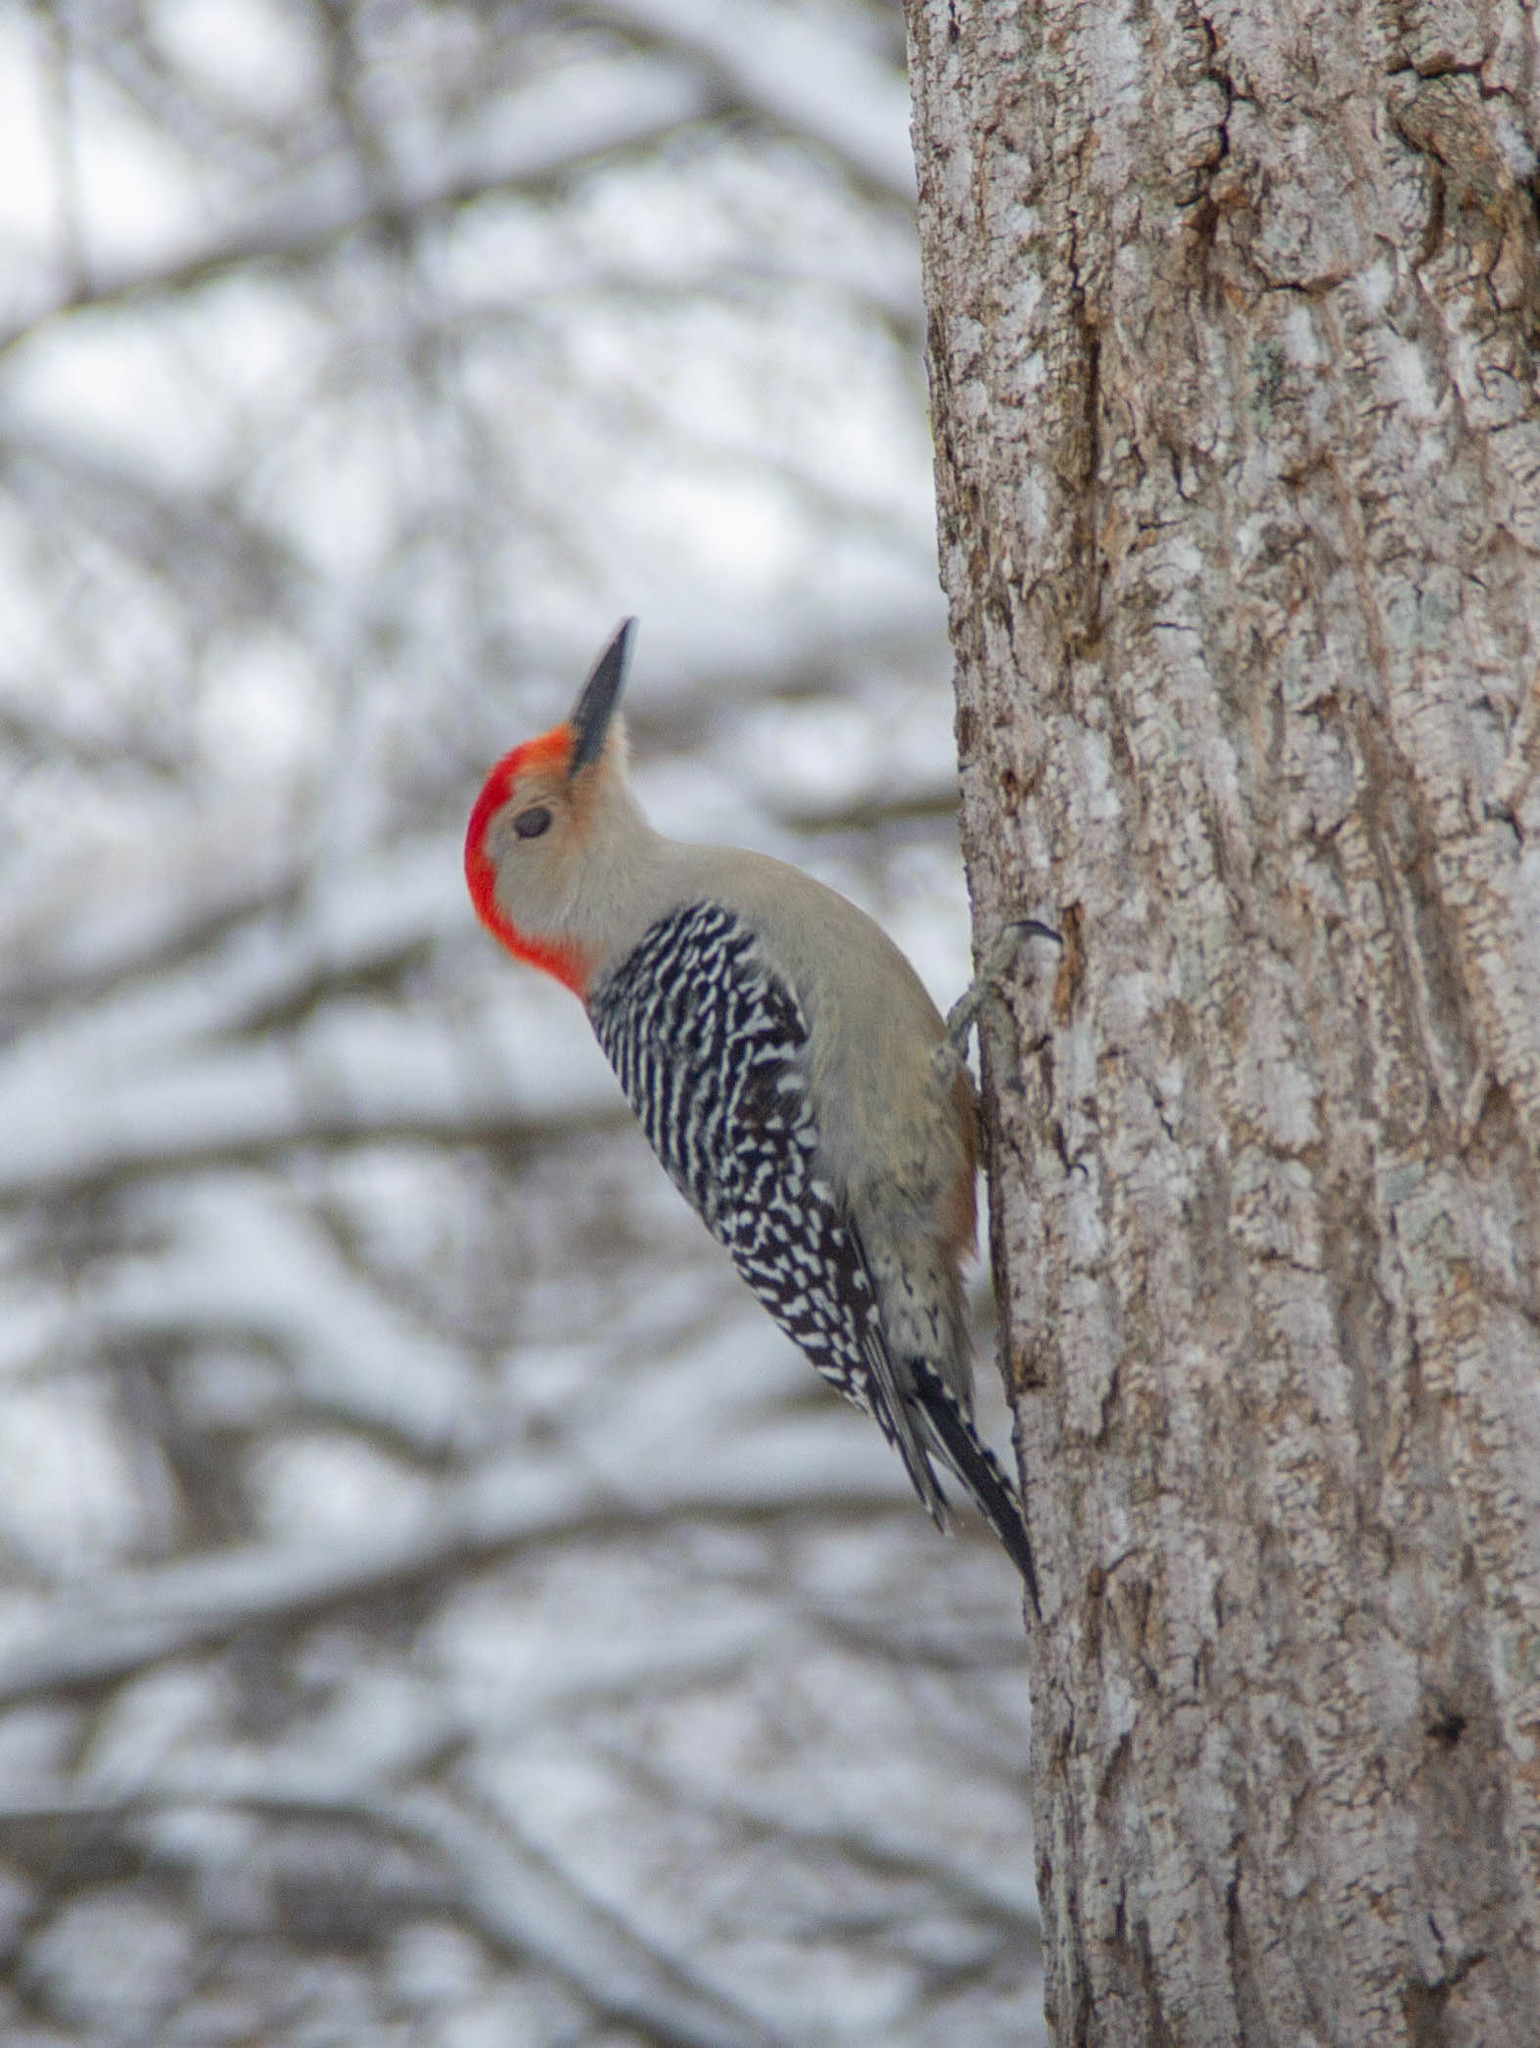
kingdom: Animalia
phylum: Chordata
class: Aves
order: Piciformes
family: Picidae
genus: Melanerpes
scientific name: Melanerpes carolinus
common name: Red-bellied woodpecker
